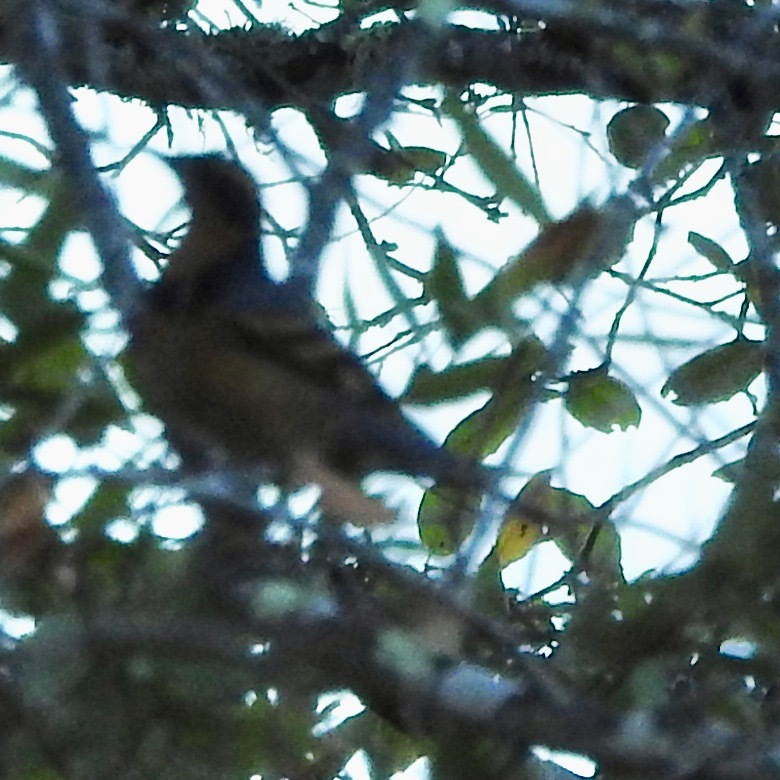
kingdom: Animalia
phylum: Chordata
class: Aves
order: Passeriformes
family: Turdidae
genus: Ixoreus
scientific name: Ixoreus naevius
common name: Varied thrush
